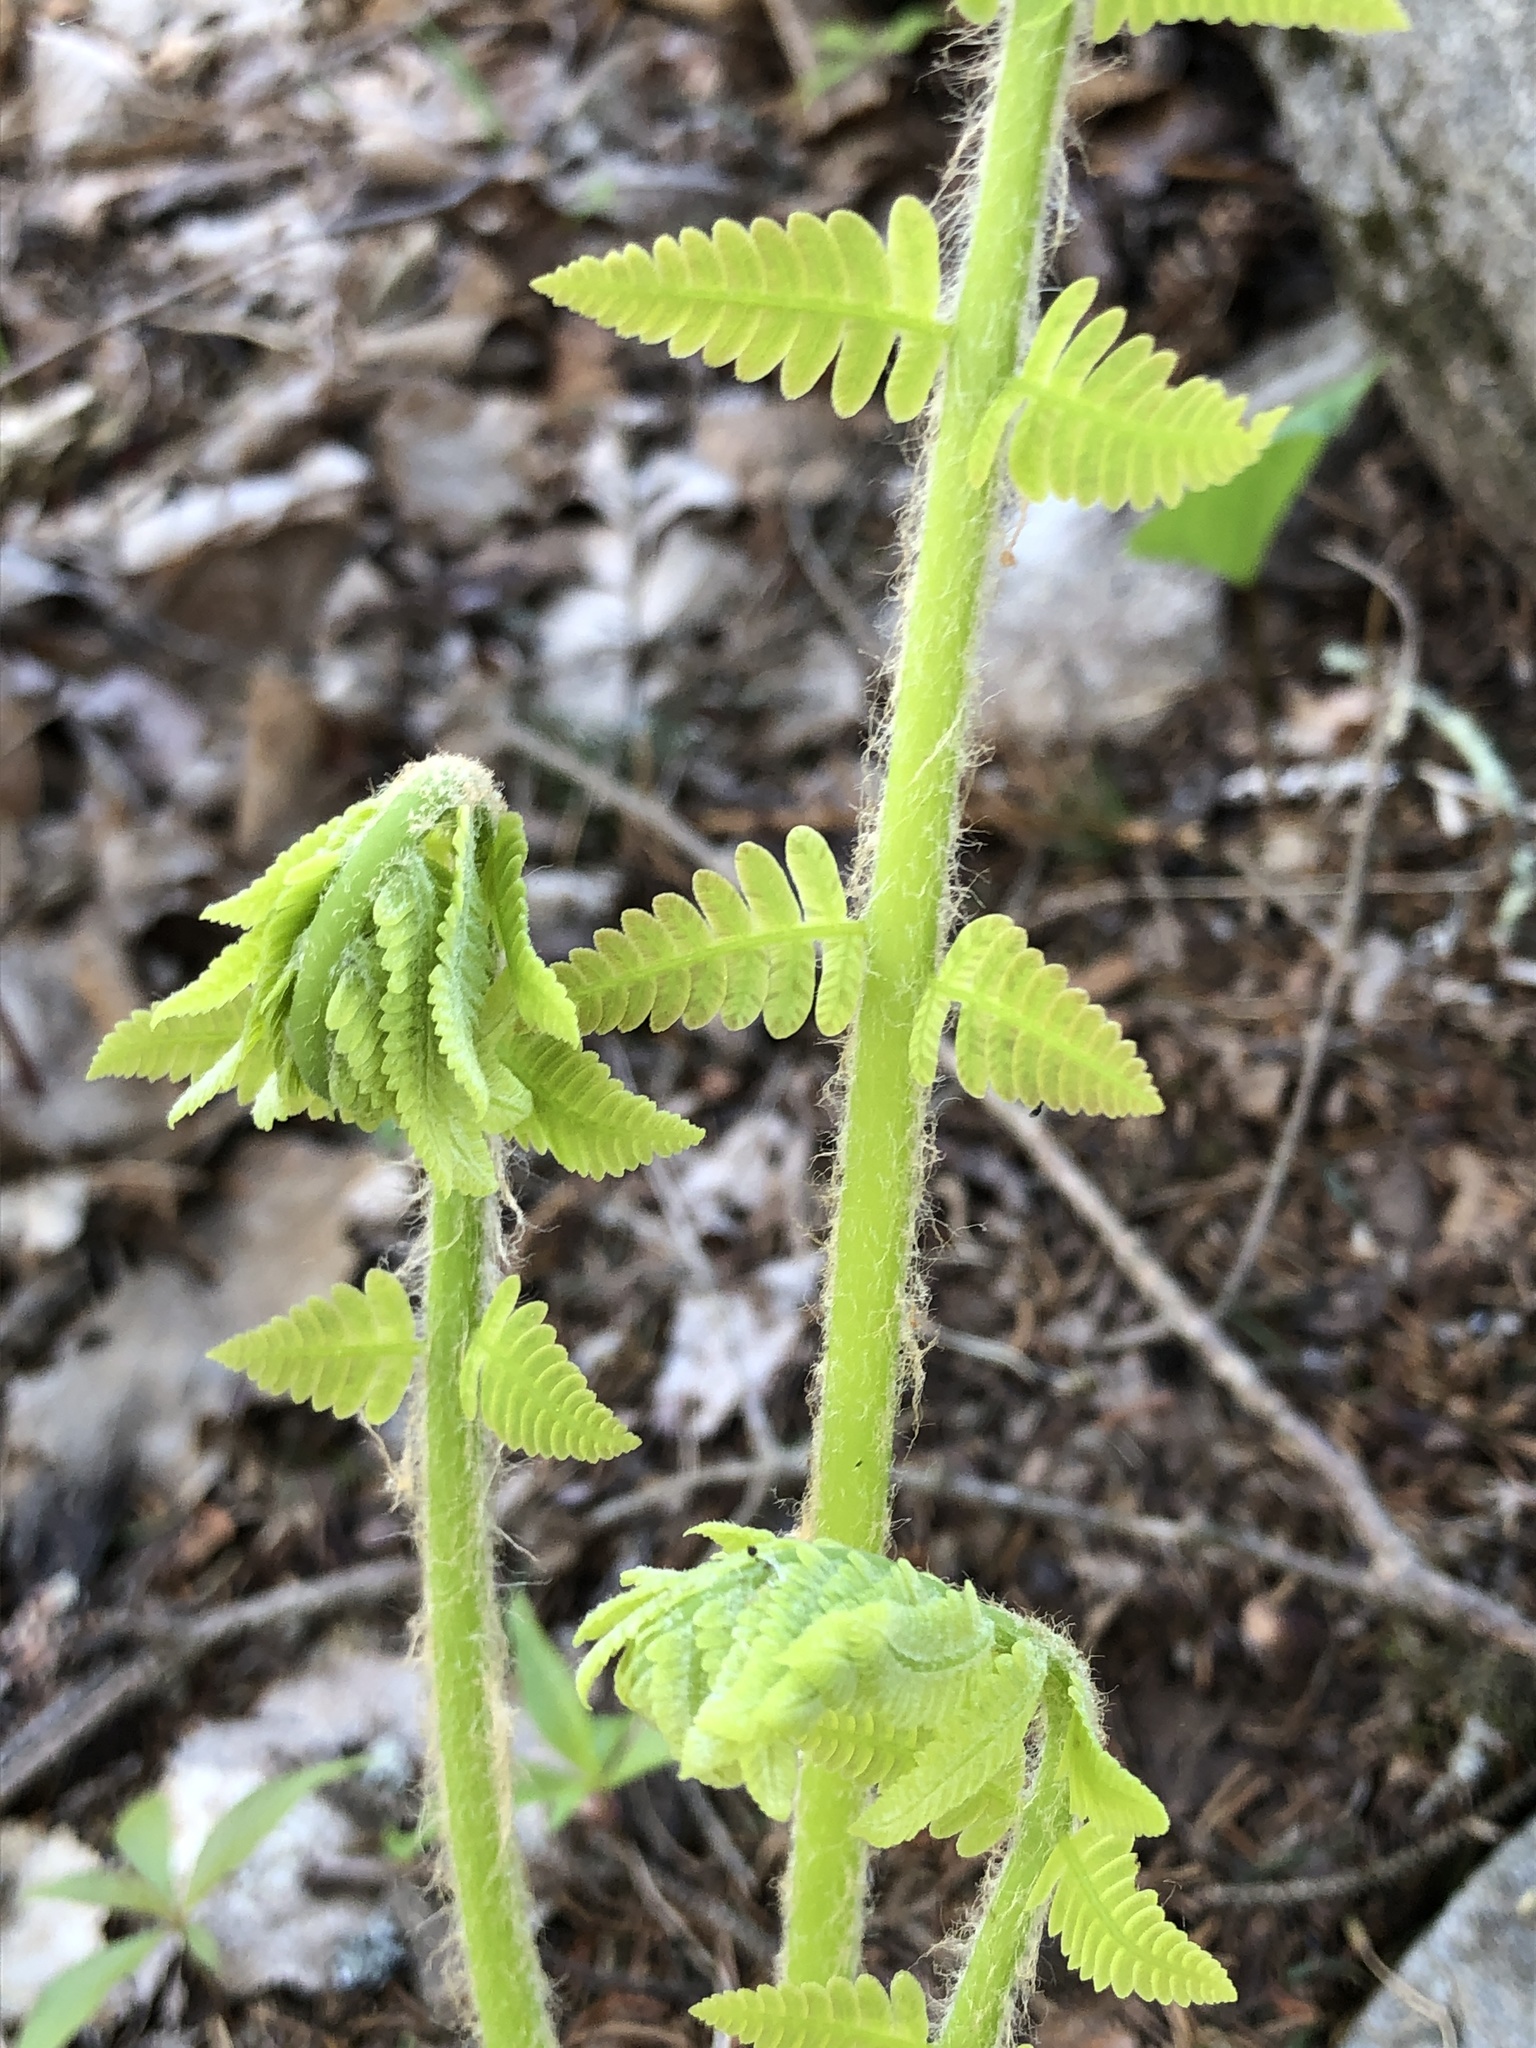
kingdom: Plantae
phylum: Tracheophyta
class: Polypodiopsida
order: Osmundales
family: Osmundaceae
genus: Claytosmunda
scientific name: Claytosmunda claytoniana
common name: Clayton's fern
